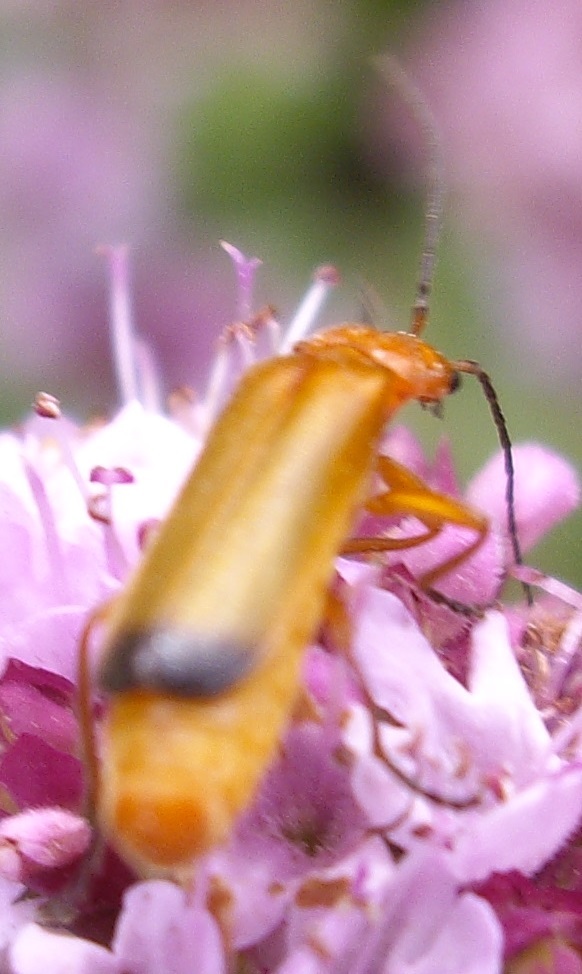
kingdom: Animalia
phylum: Arthropoda
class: Insecta
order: Coleoptera
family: Cantharidae
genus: Rhagonycha
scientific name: Rhagonycha fulva
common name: Common red soldier beetle
